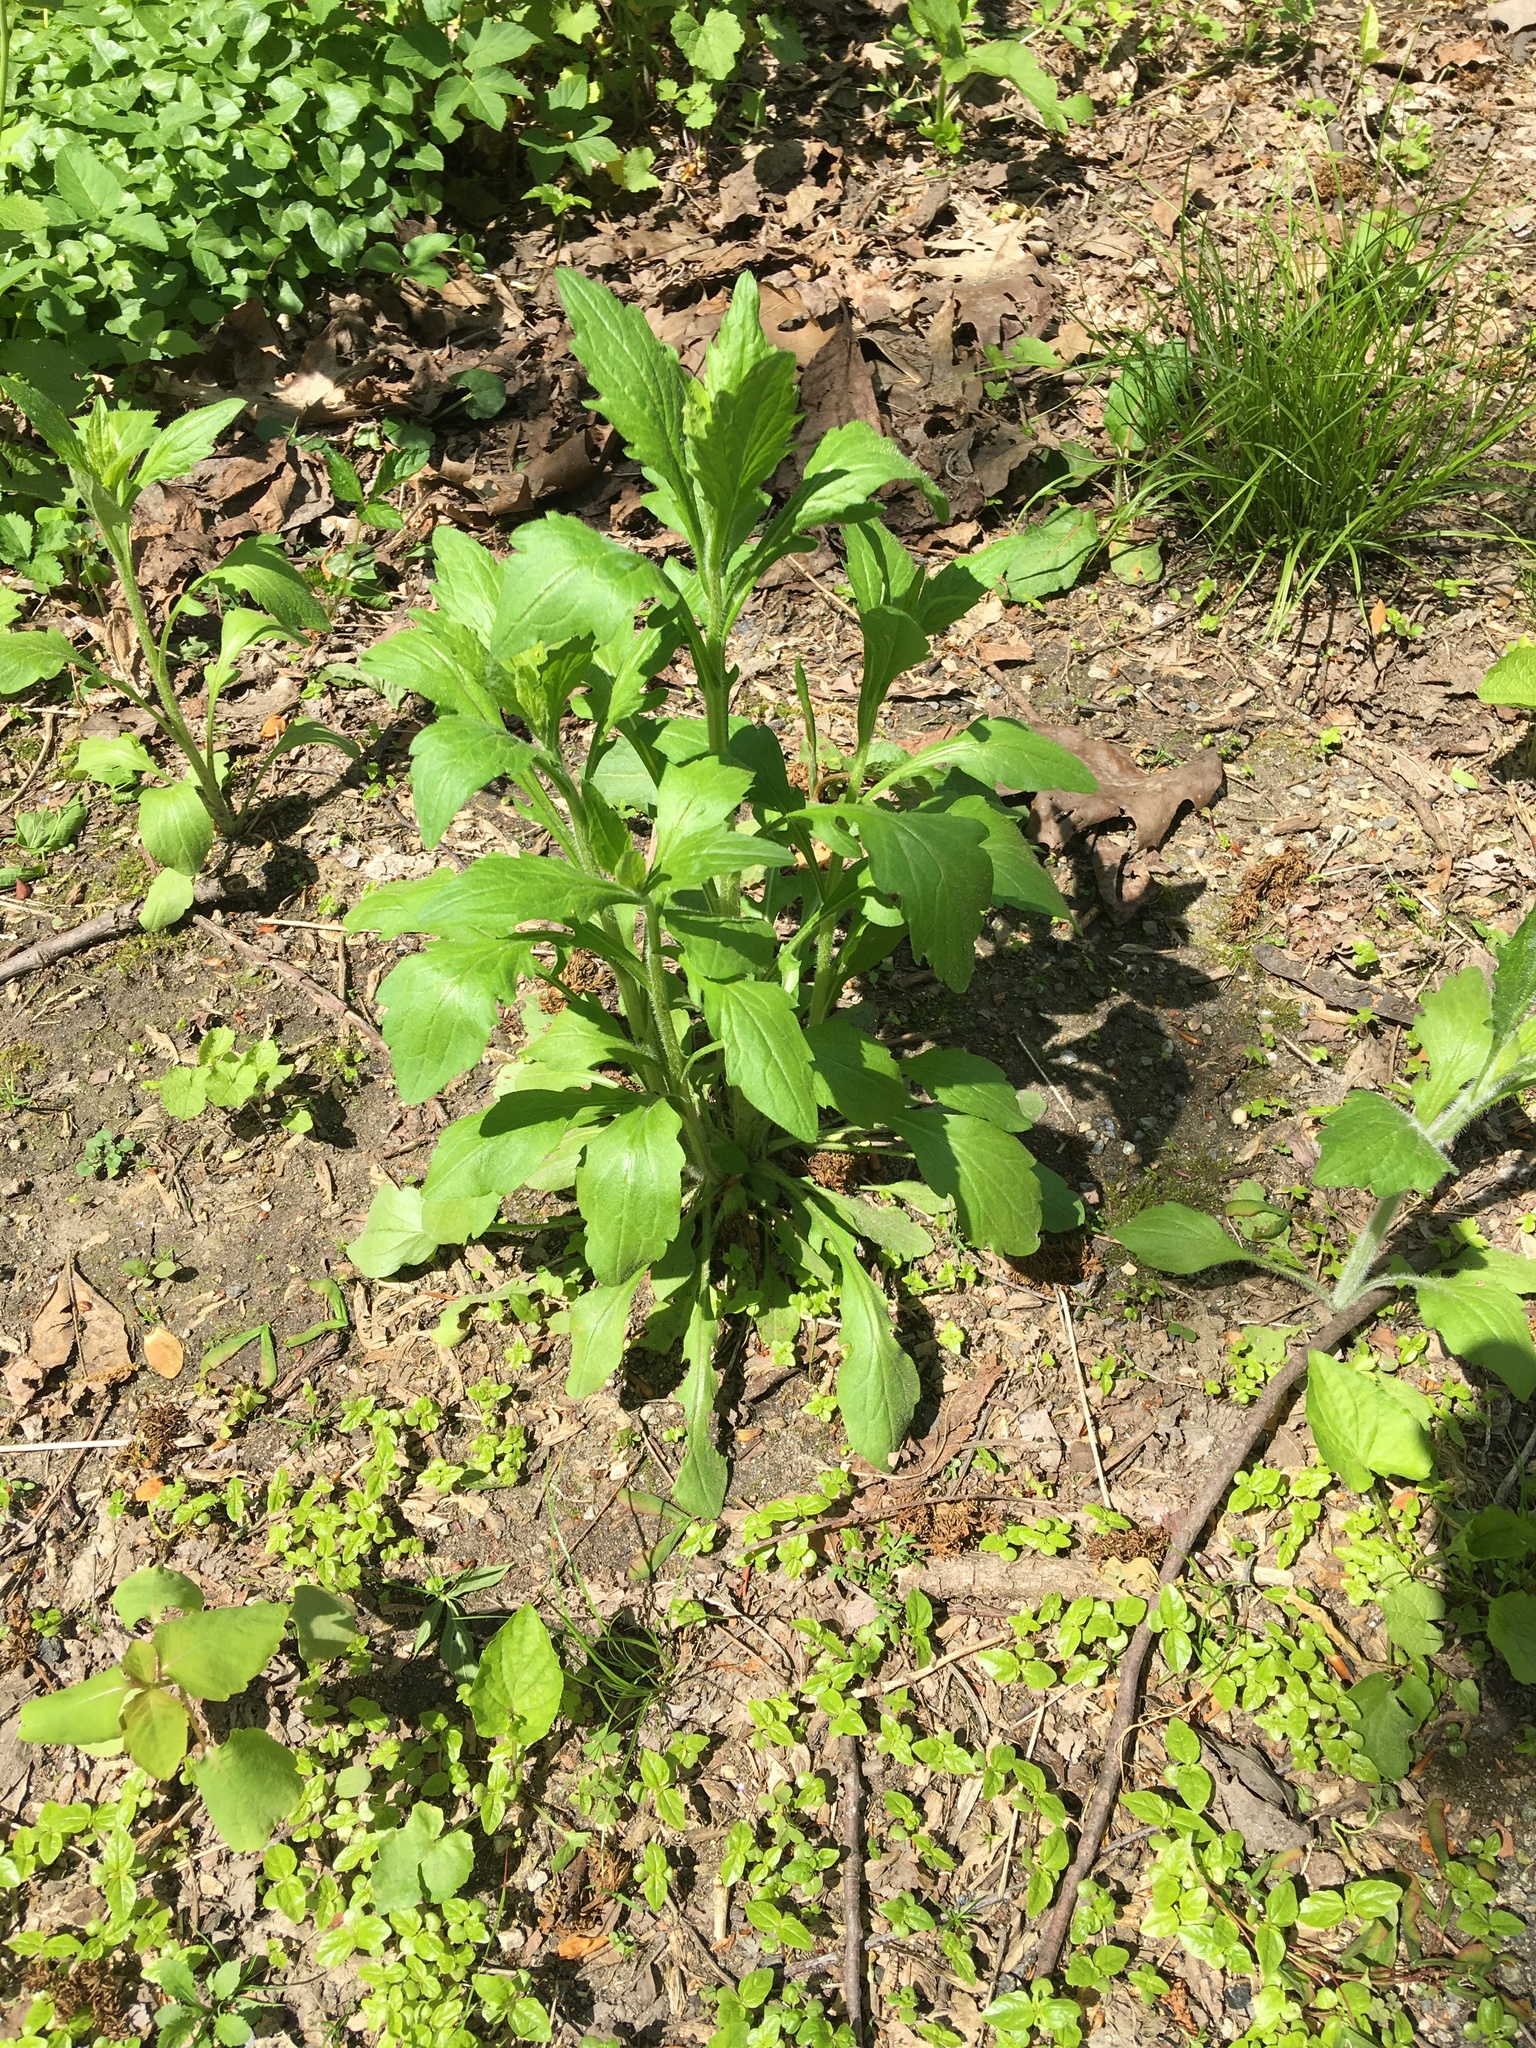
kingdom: Plantae
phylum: Tracheophyta
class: Magnoliopsida
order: Asterales
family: Asteraceae
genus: Erigeron
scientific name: Erigeron annuus
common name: Tall fleabane
